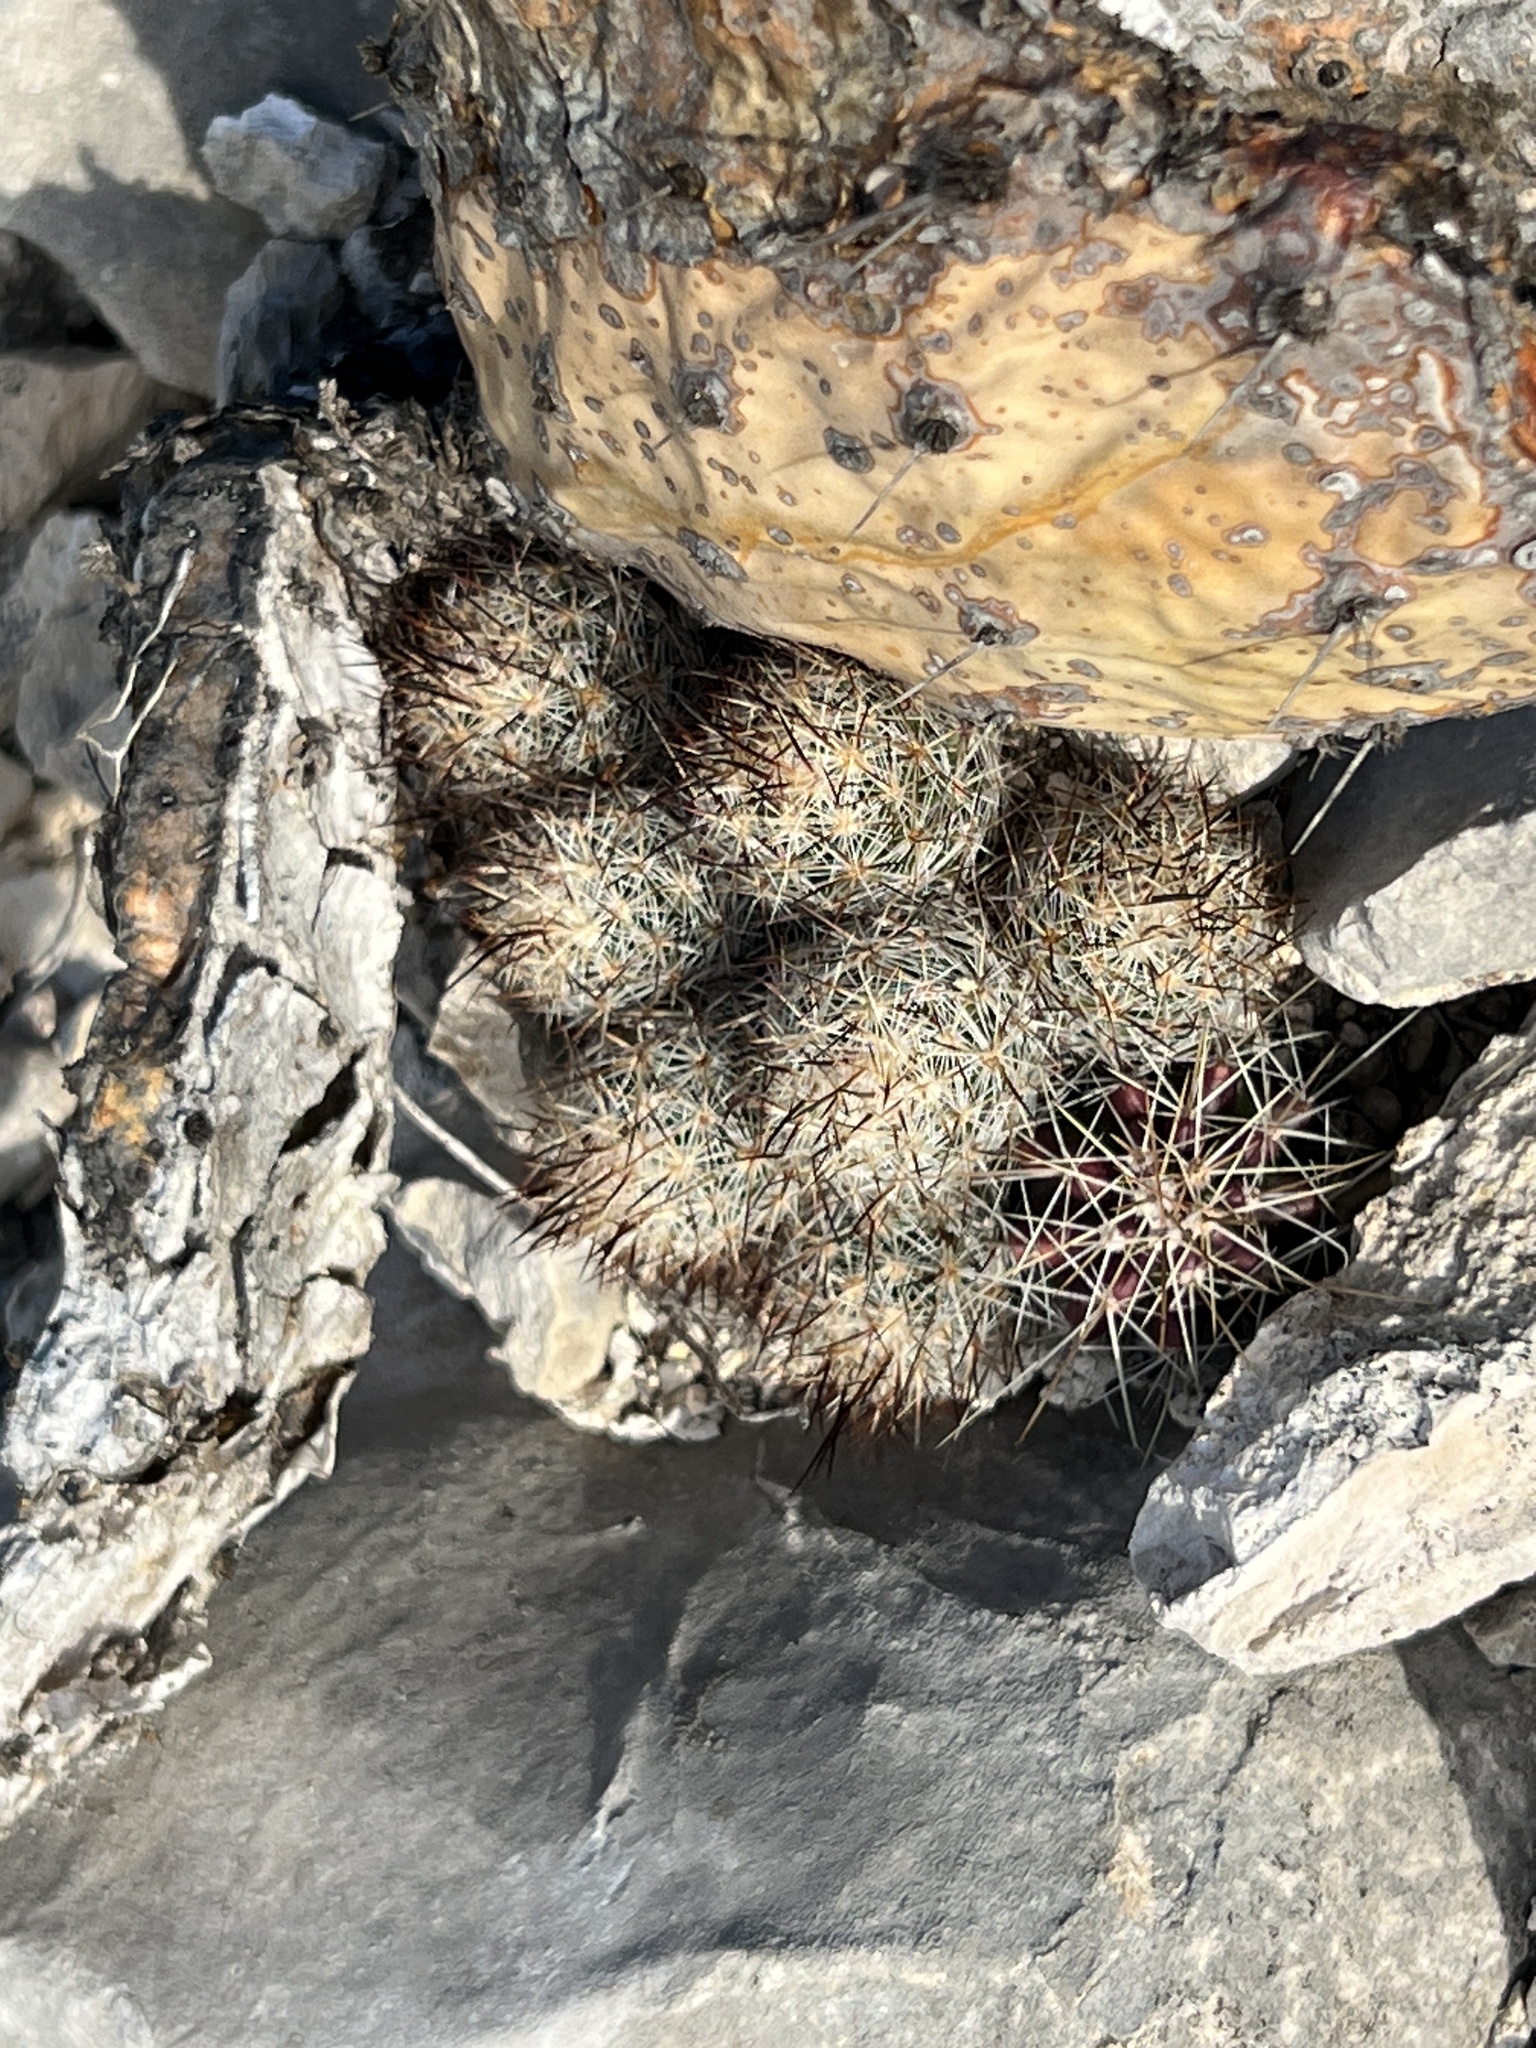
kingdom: Plantae
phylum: Tracheophyta
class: Magnoliopsida
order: Caryophyllales
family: Cactaceae
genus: Pelecyphora
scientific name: Pelecyphora emskoetteriana
